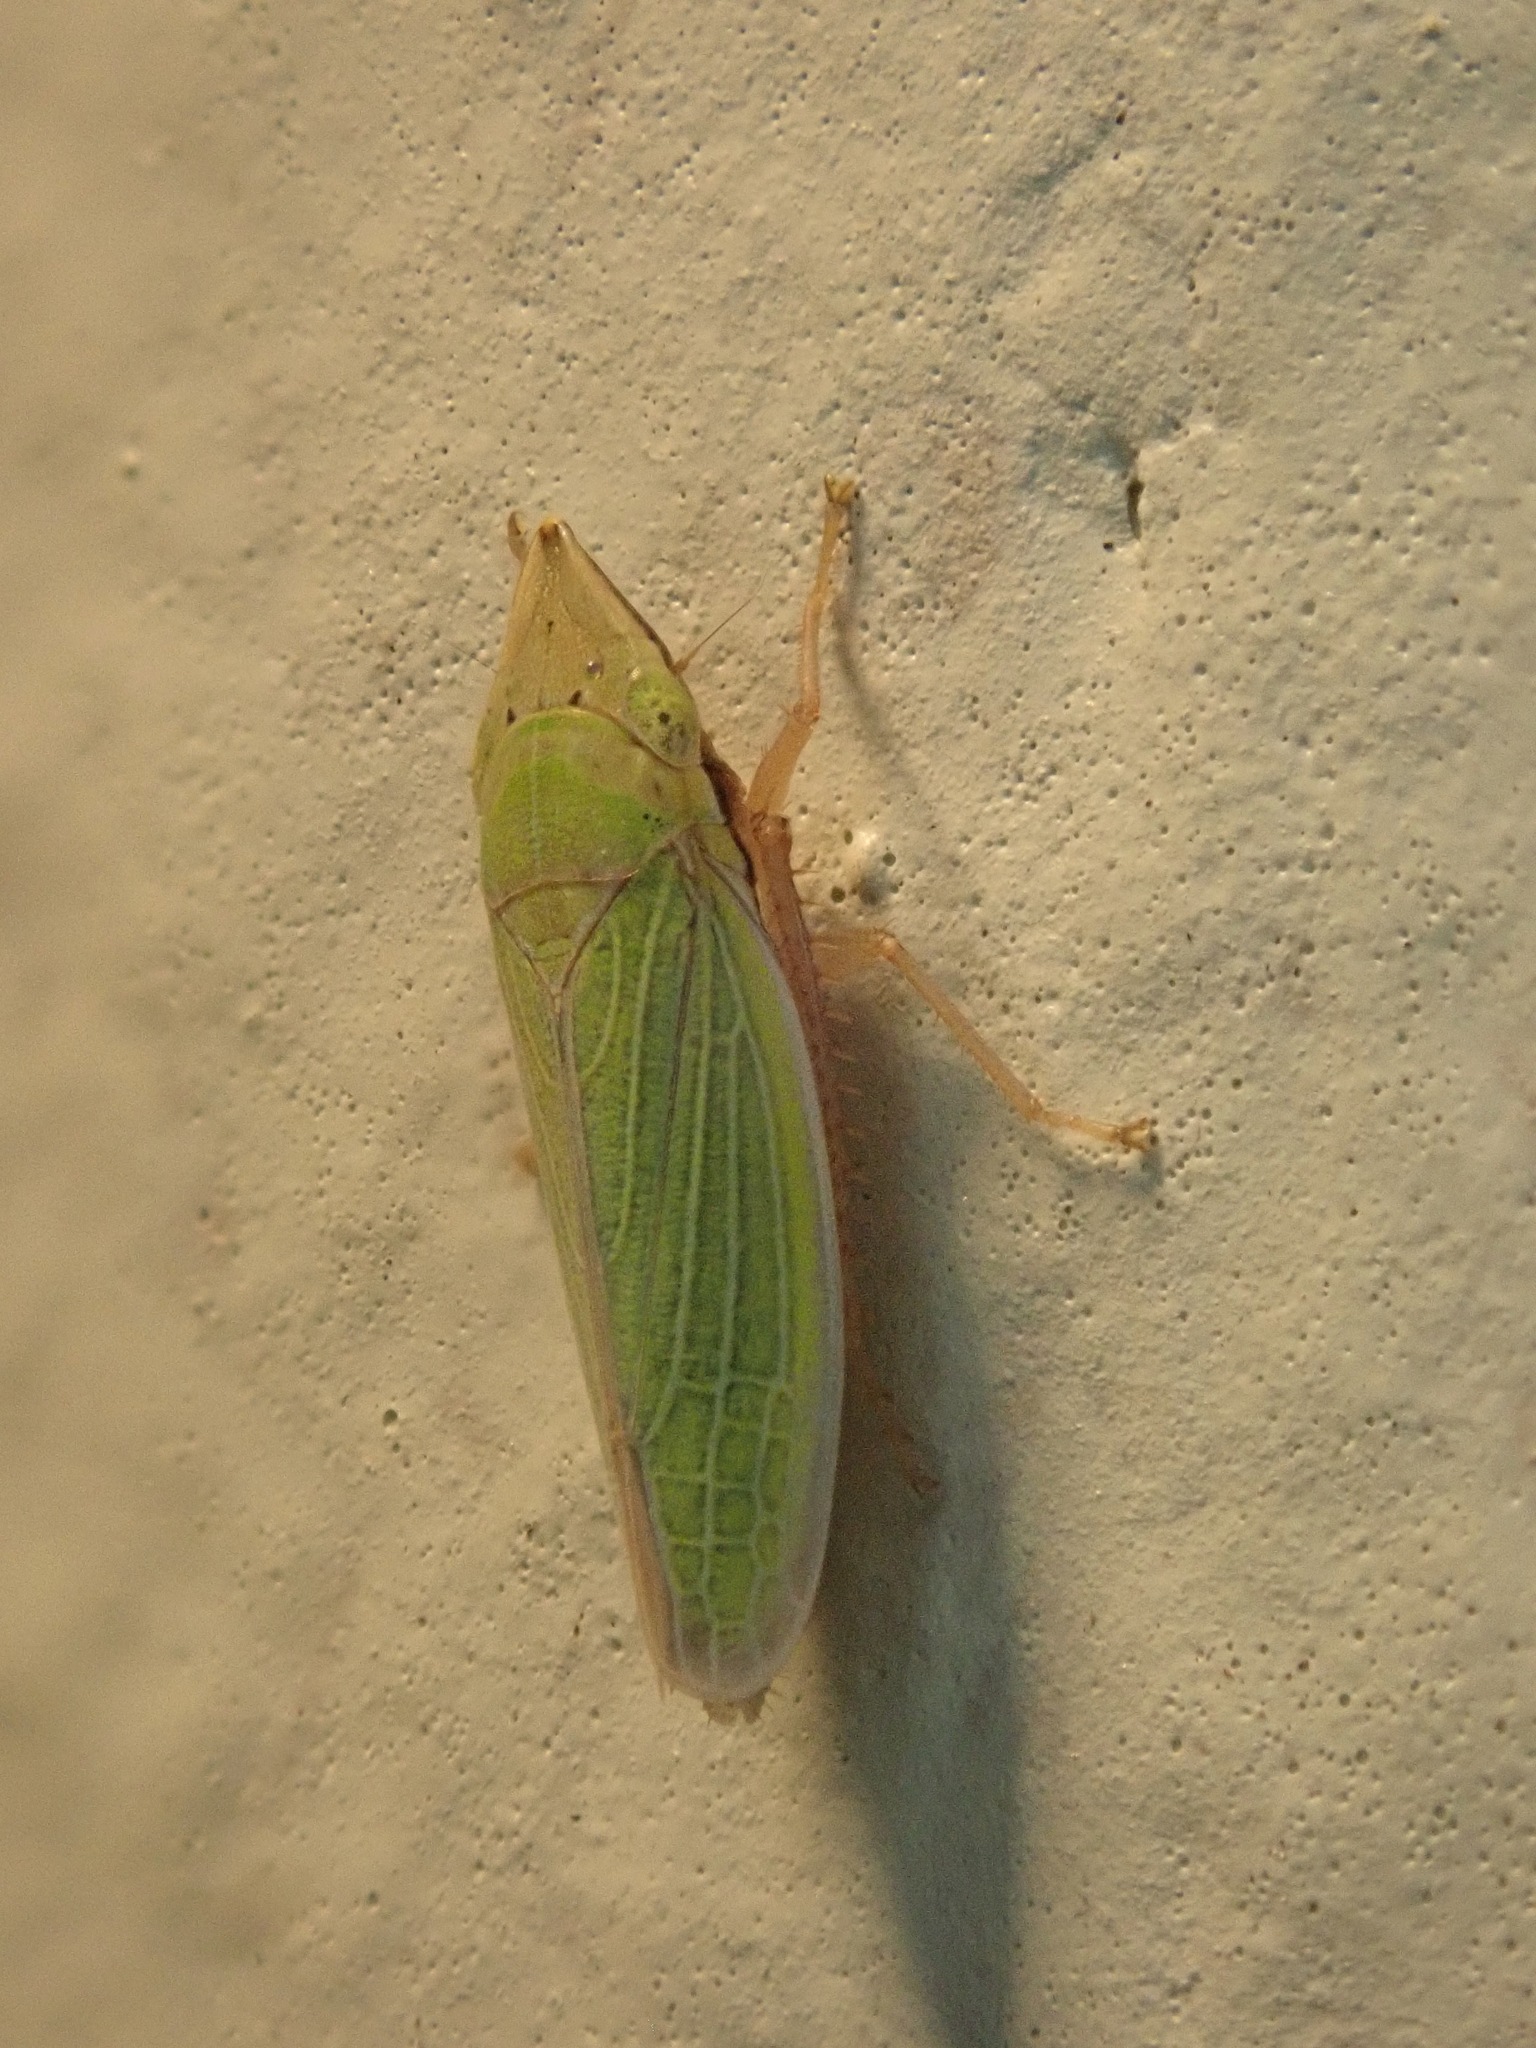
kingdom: Animalia
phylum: Arthropoda
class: Insecta
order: Hemiptera
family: Cicadellidae
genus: Draeculacephala
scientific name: Draeculacephala balli
